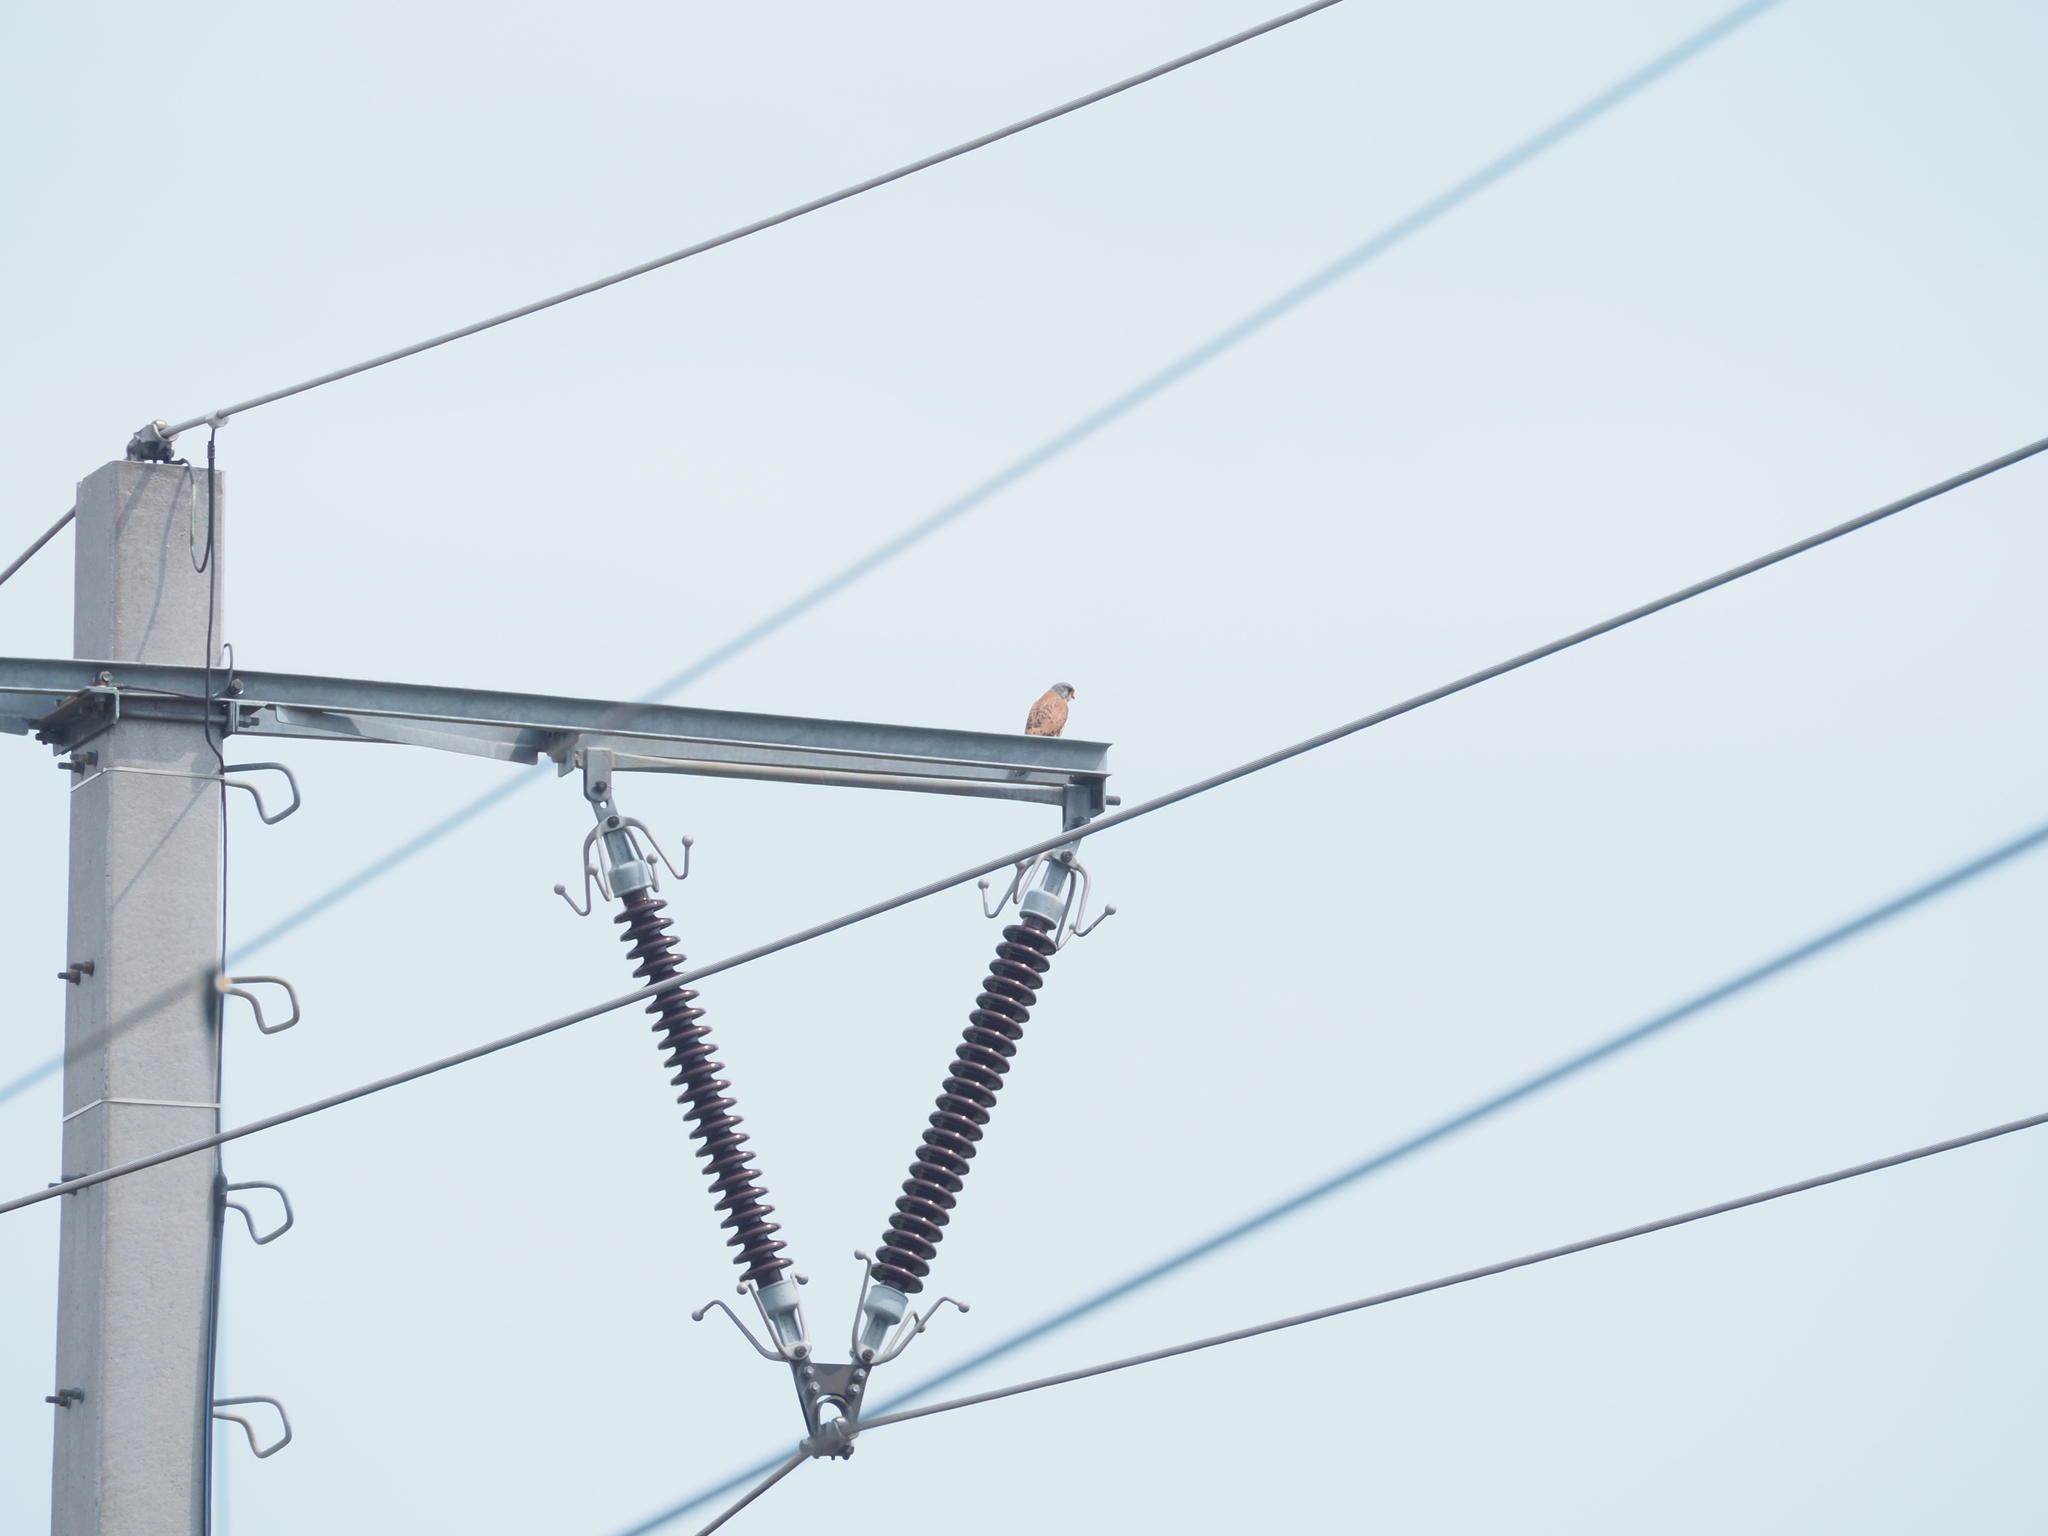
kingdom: Animalia
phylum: Chordata
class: Aves
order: Falconiformes
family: Falconidae
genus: Falco
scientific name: Falco tinnunculus
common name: Common kestrel
